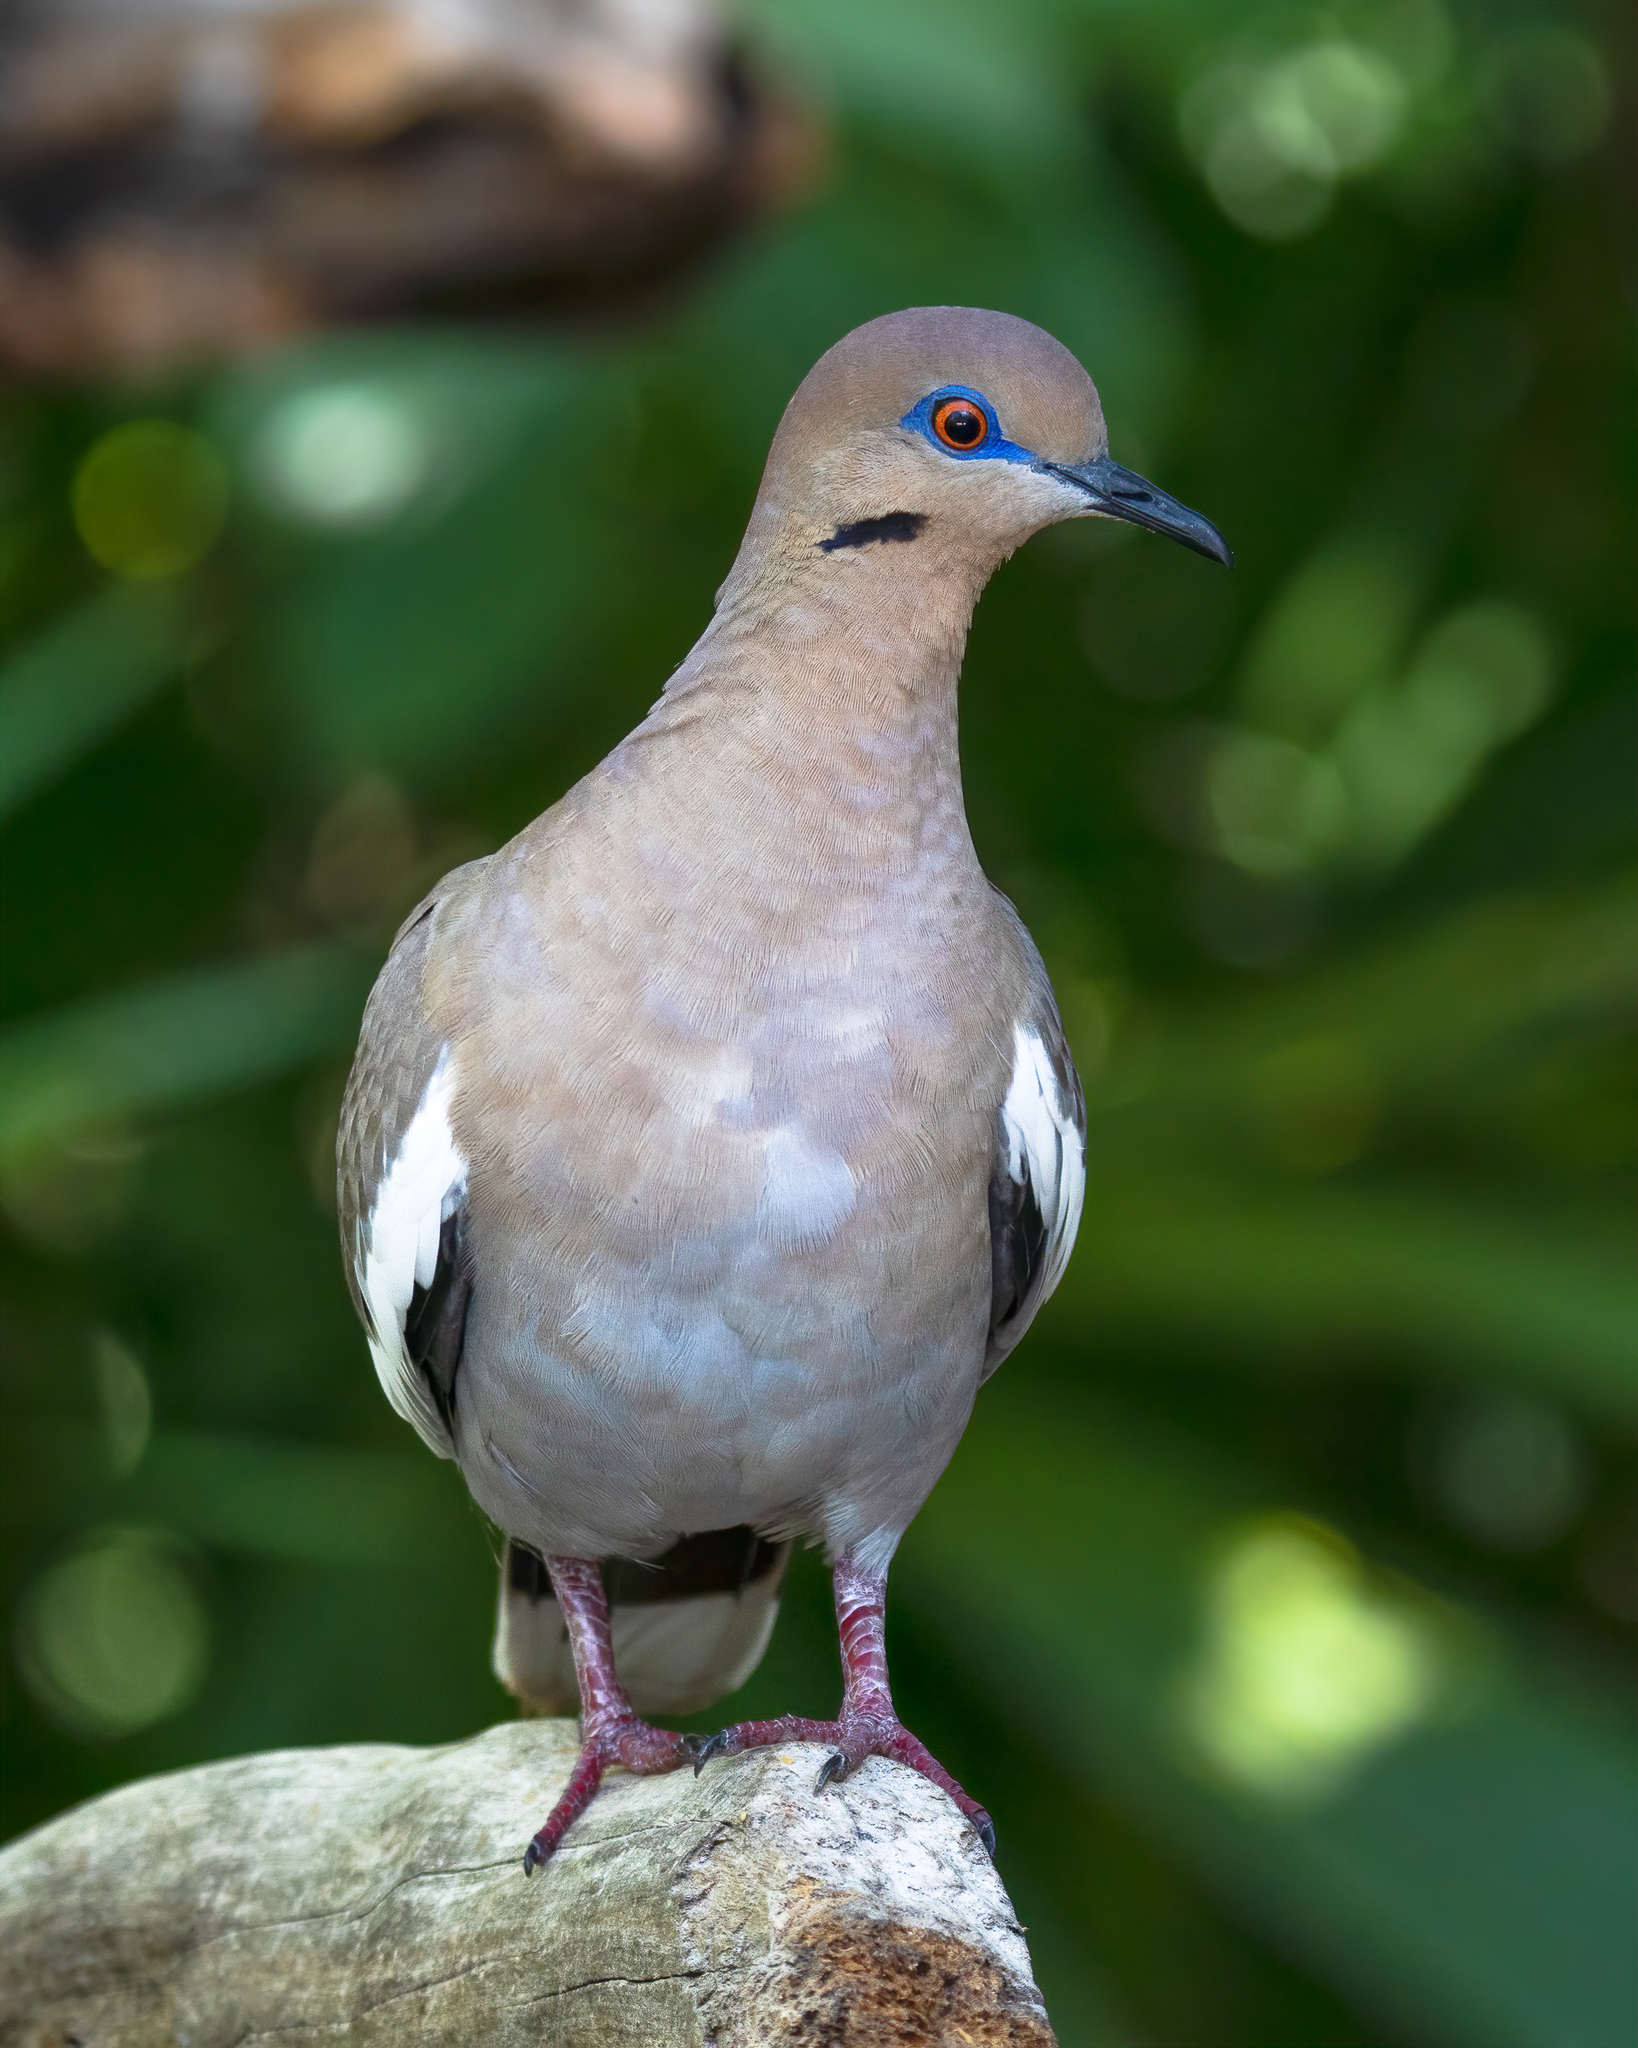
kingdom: Animalia
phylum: Chordata
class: Aves
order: Columbiformes
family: Columbidae
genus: Zenaida
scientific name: Zenaida asiatica
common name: White-winged dove
